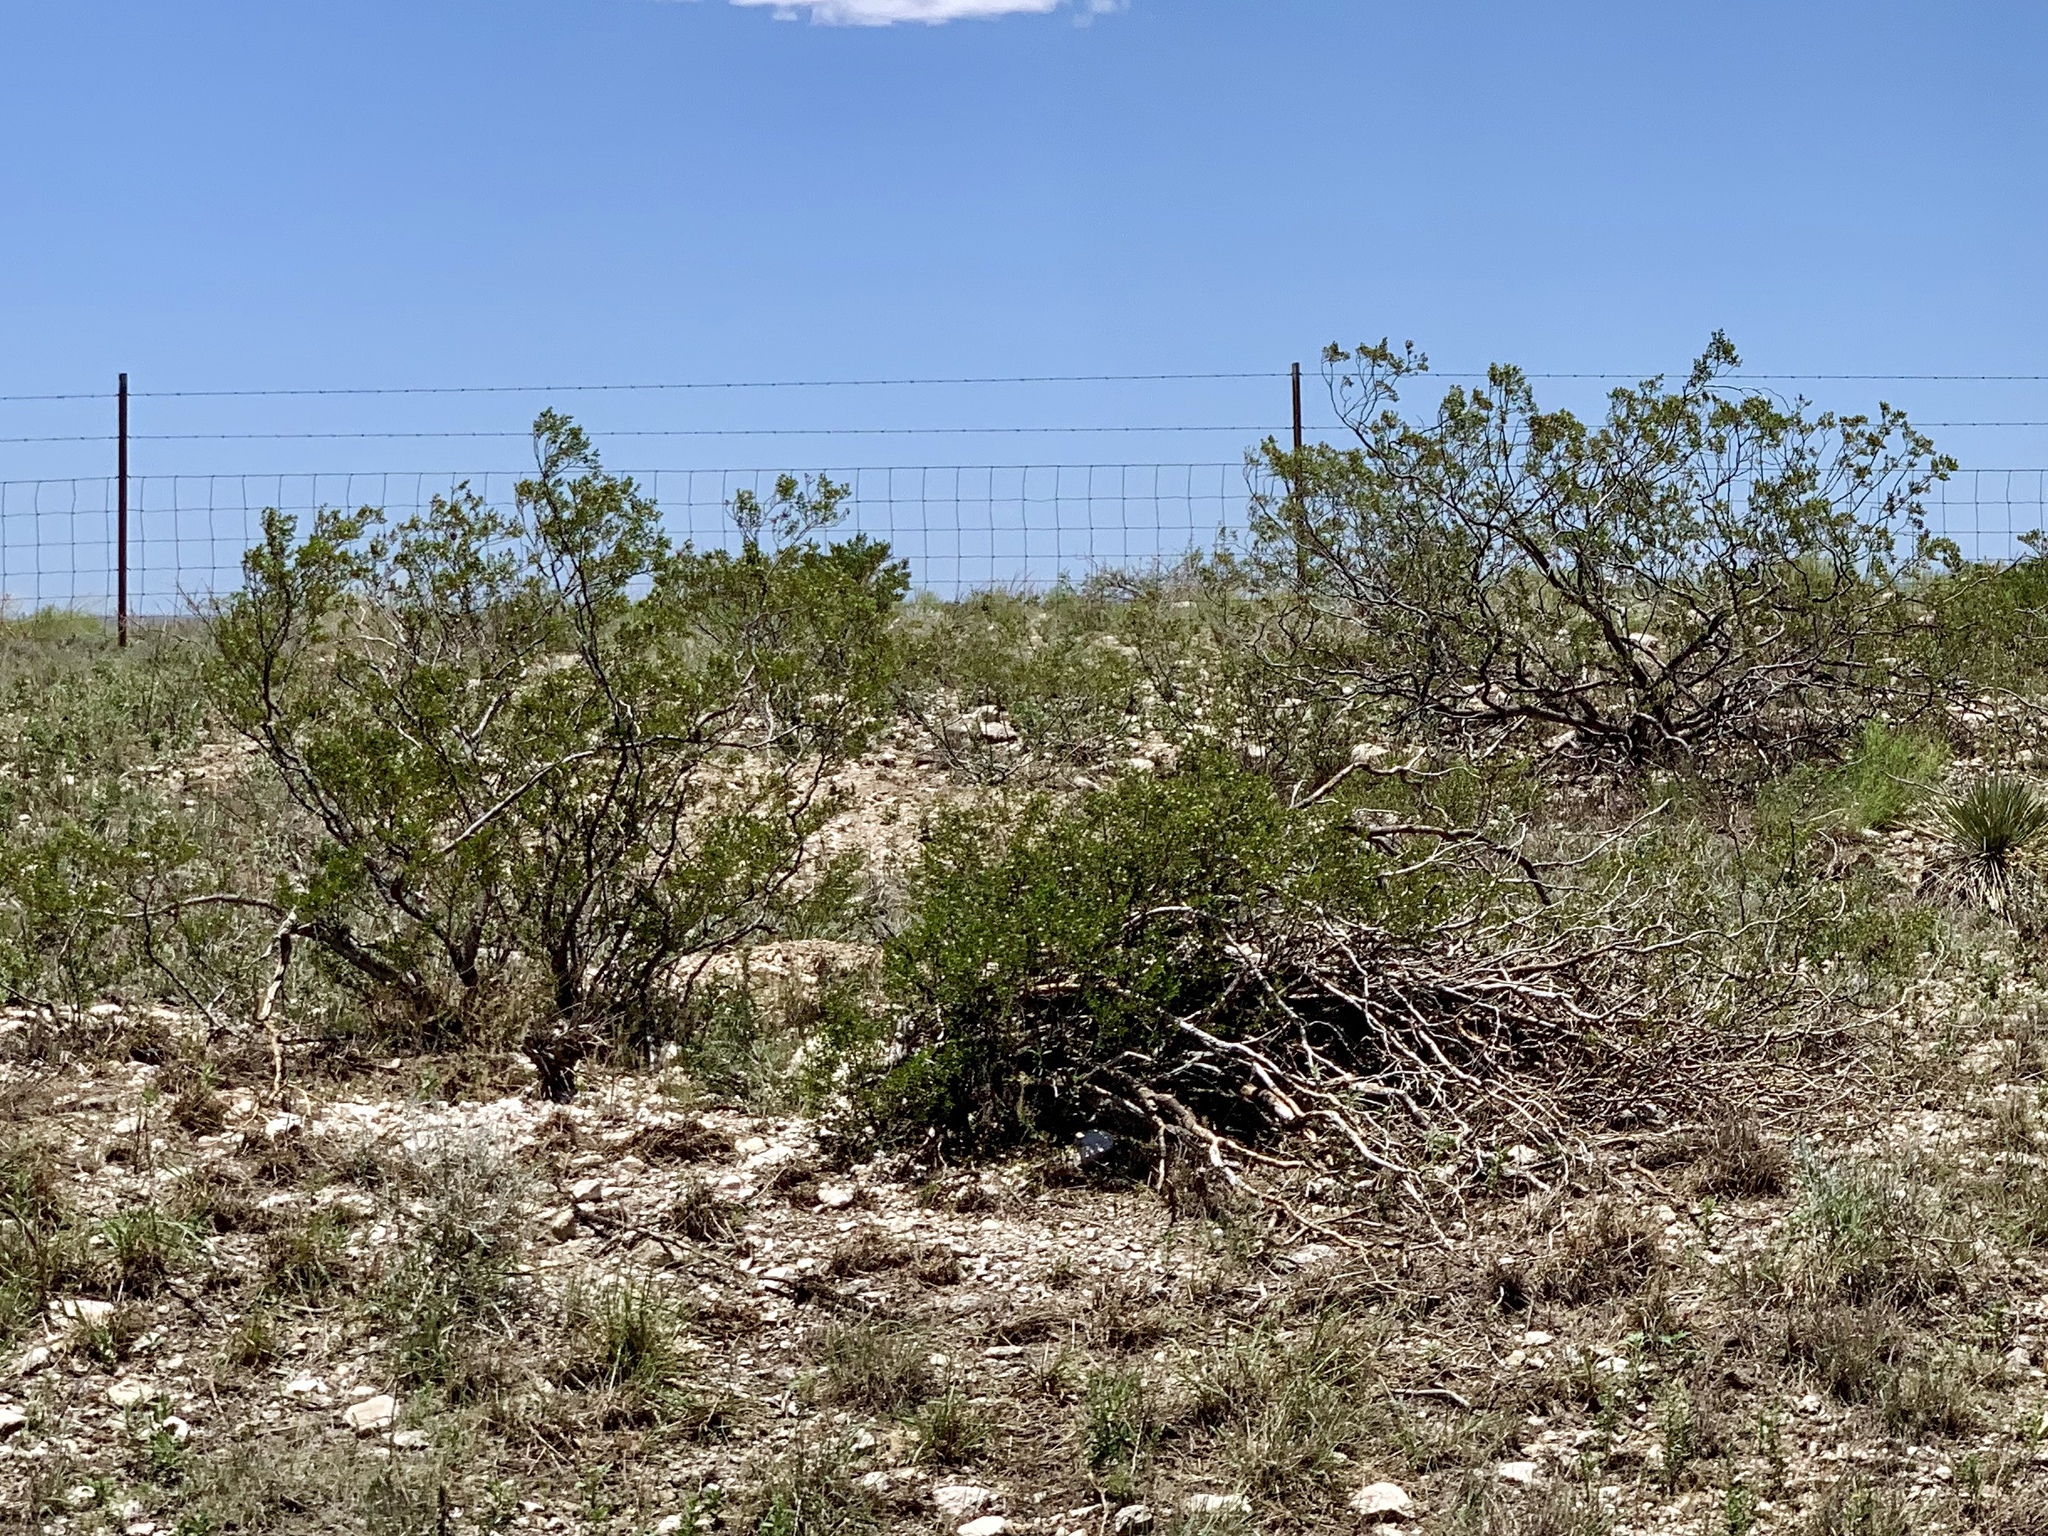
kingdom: Plantae
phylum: Tracheophyta
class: Magnoliopsida
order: Zygophyllales
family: Zygophyllaceae
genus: Larrea
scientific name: Larrea tridentata
